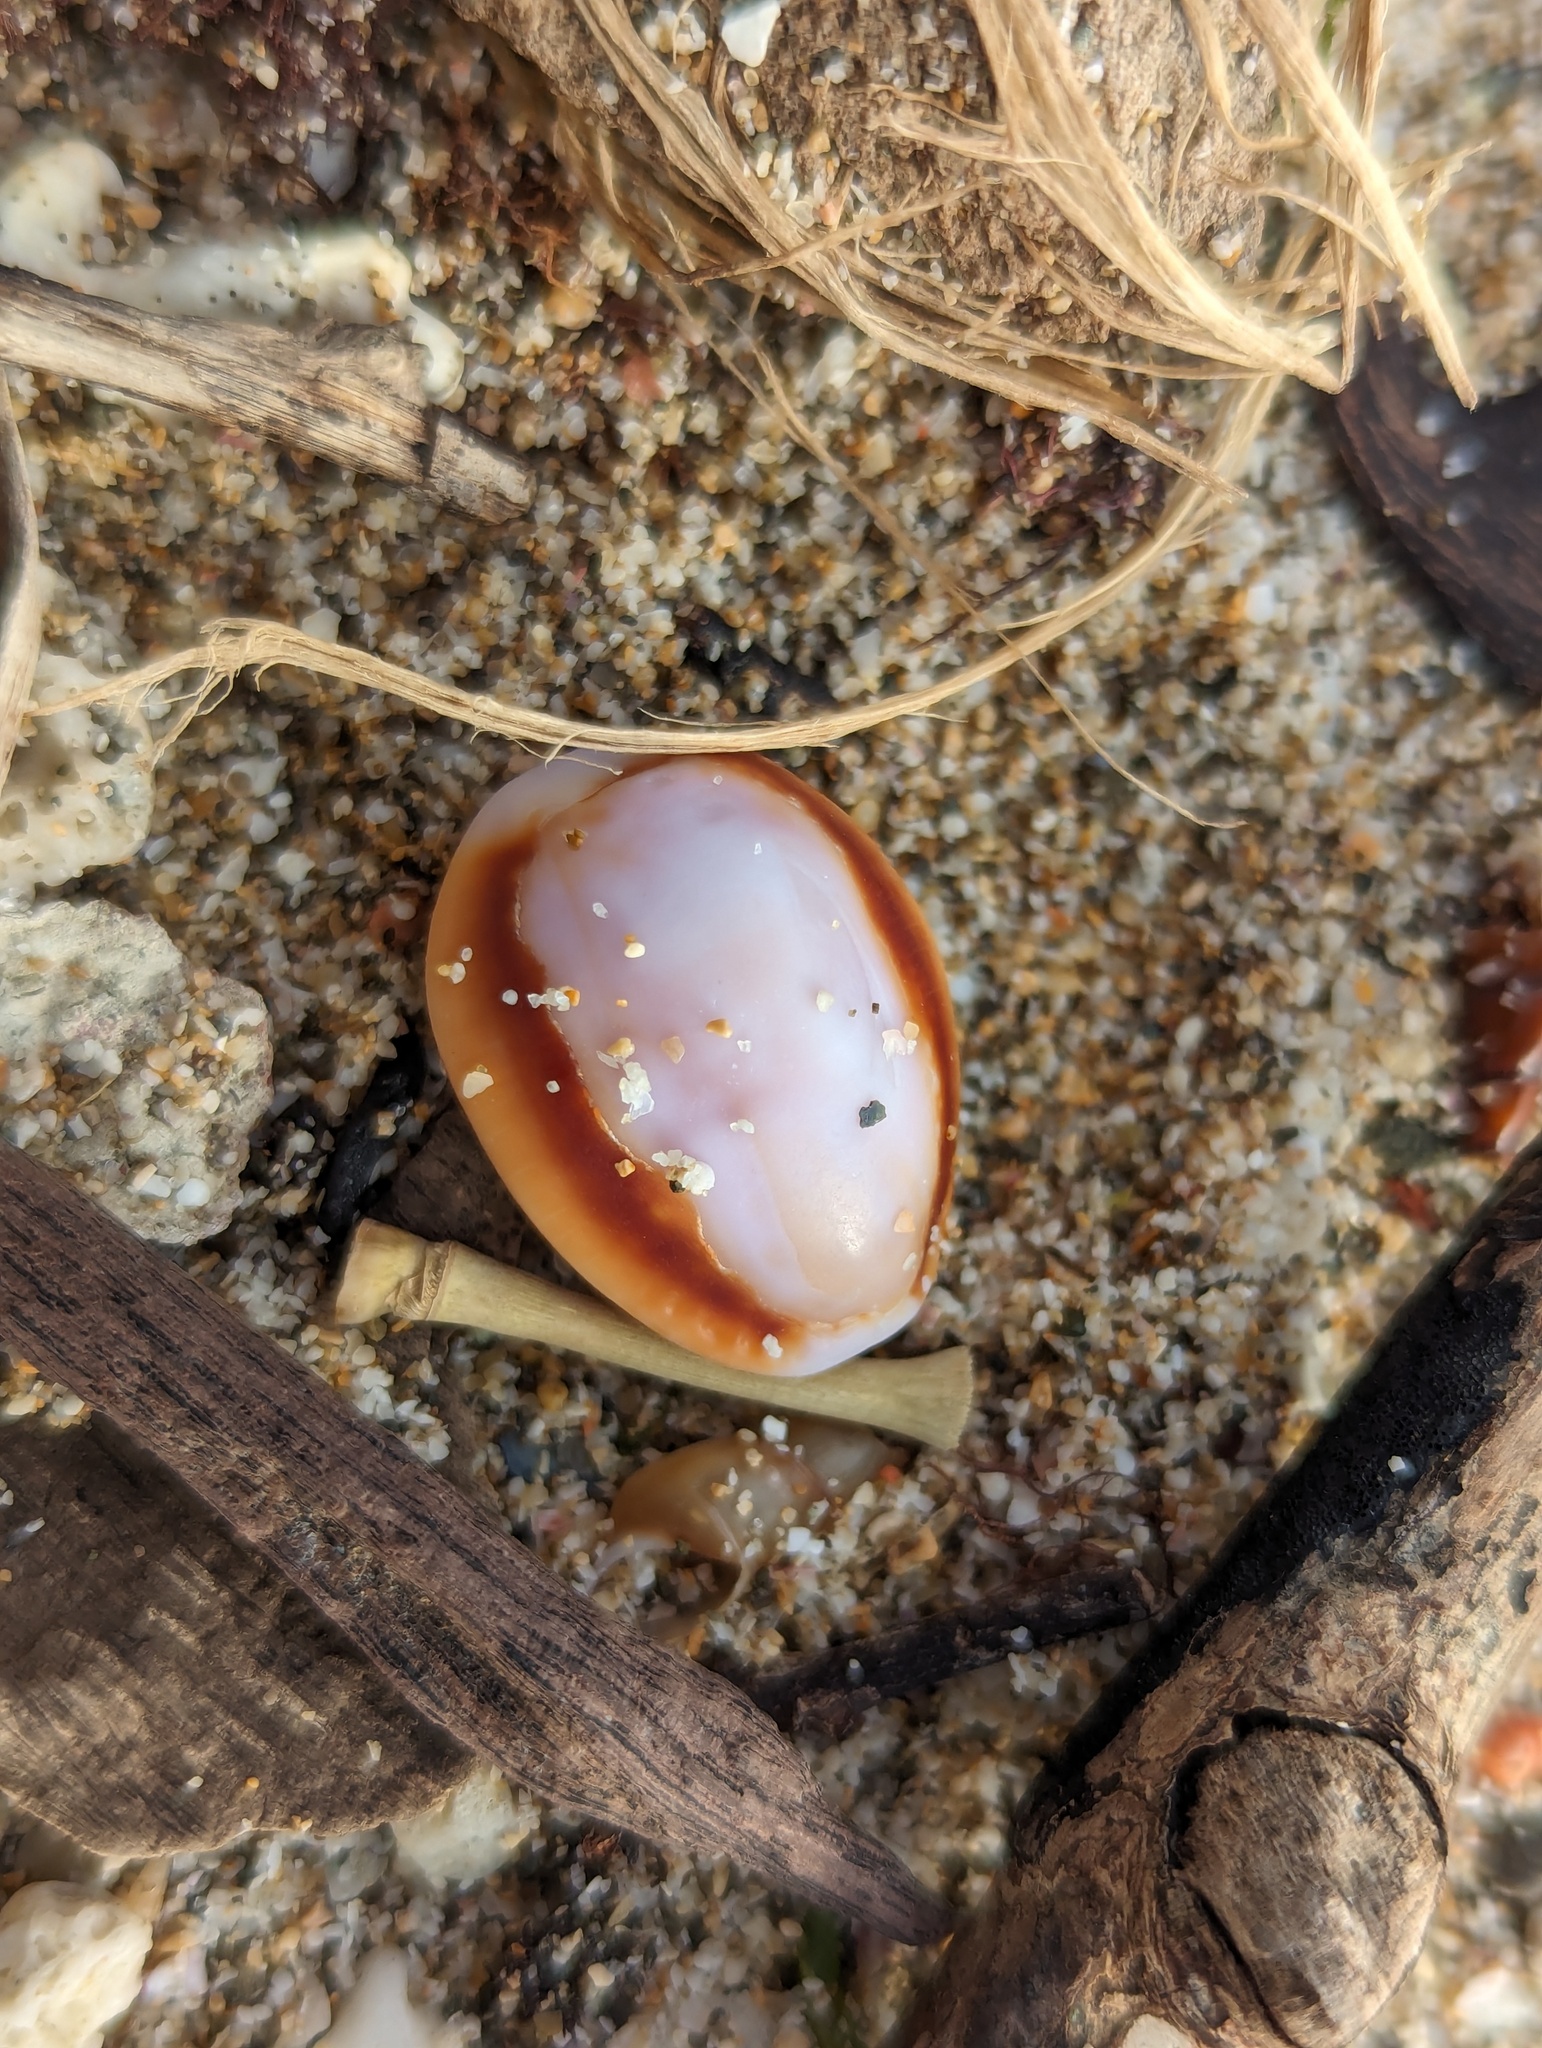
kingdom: Animalia
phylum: Mollusca
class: Gastropoda
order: Littorinimorpha
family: Cypraeidae
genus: Naria
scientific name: Naria helvola
